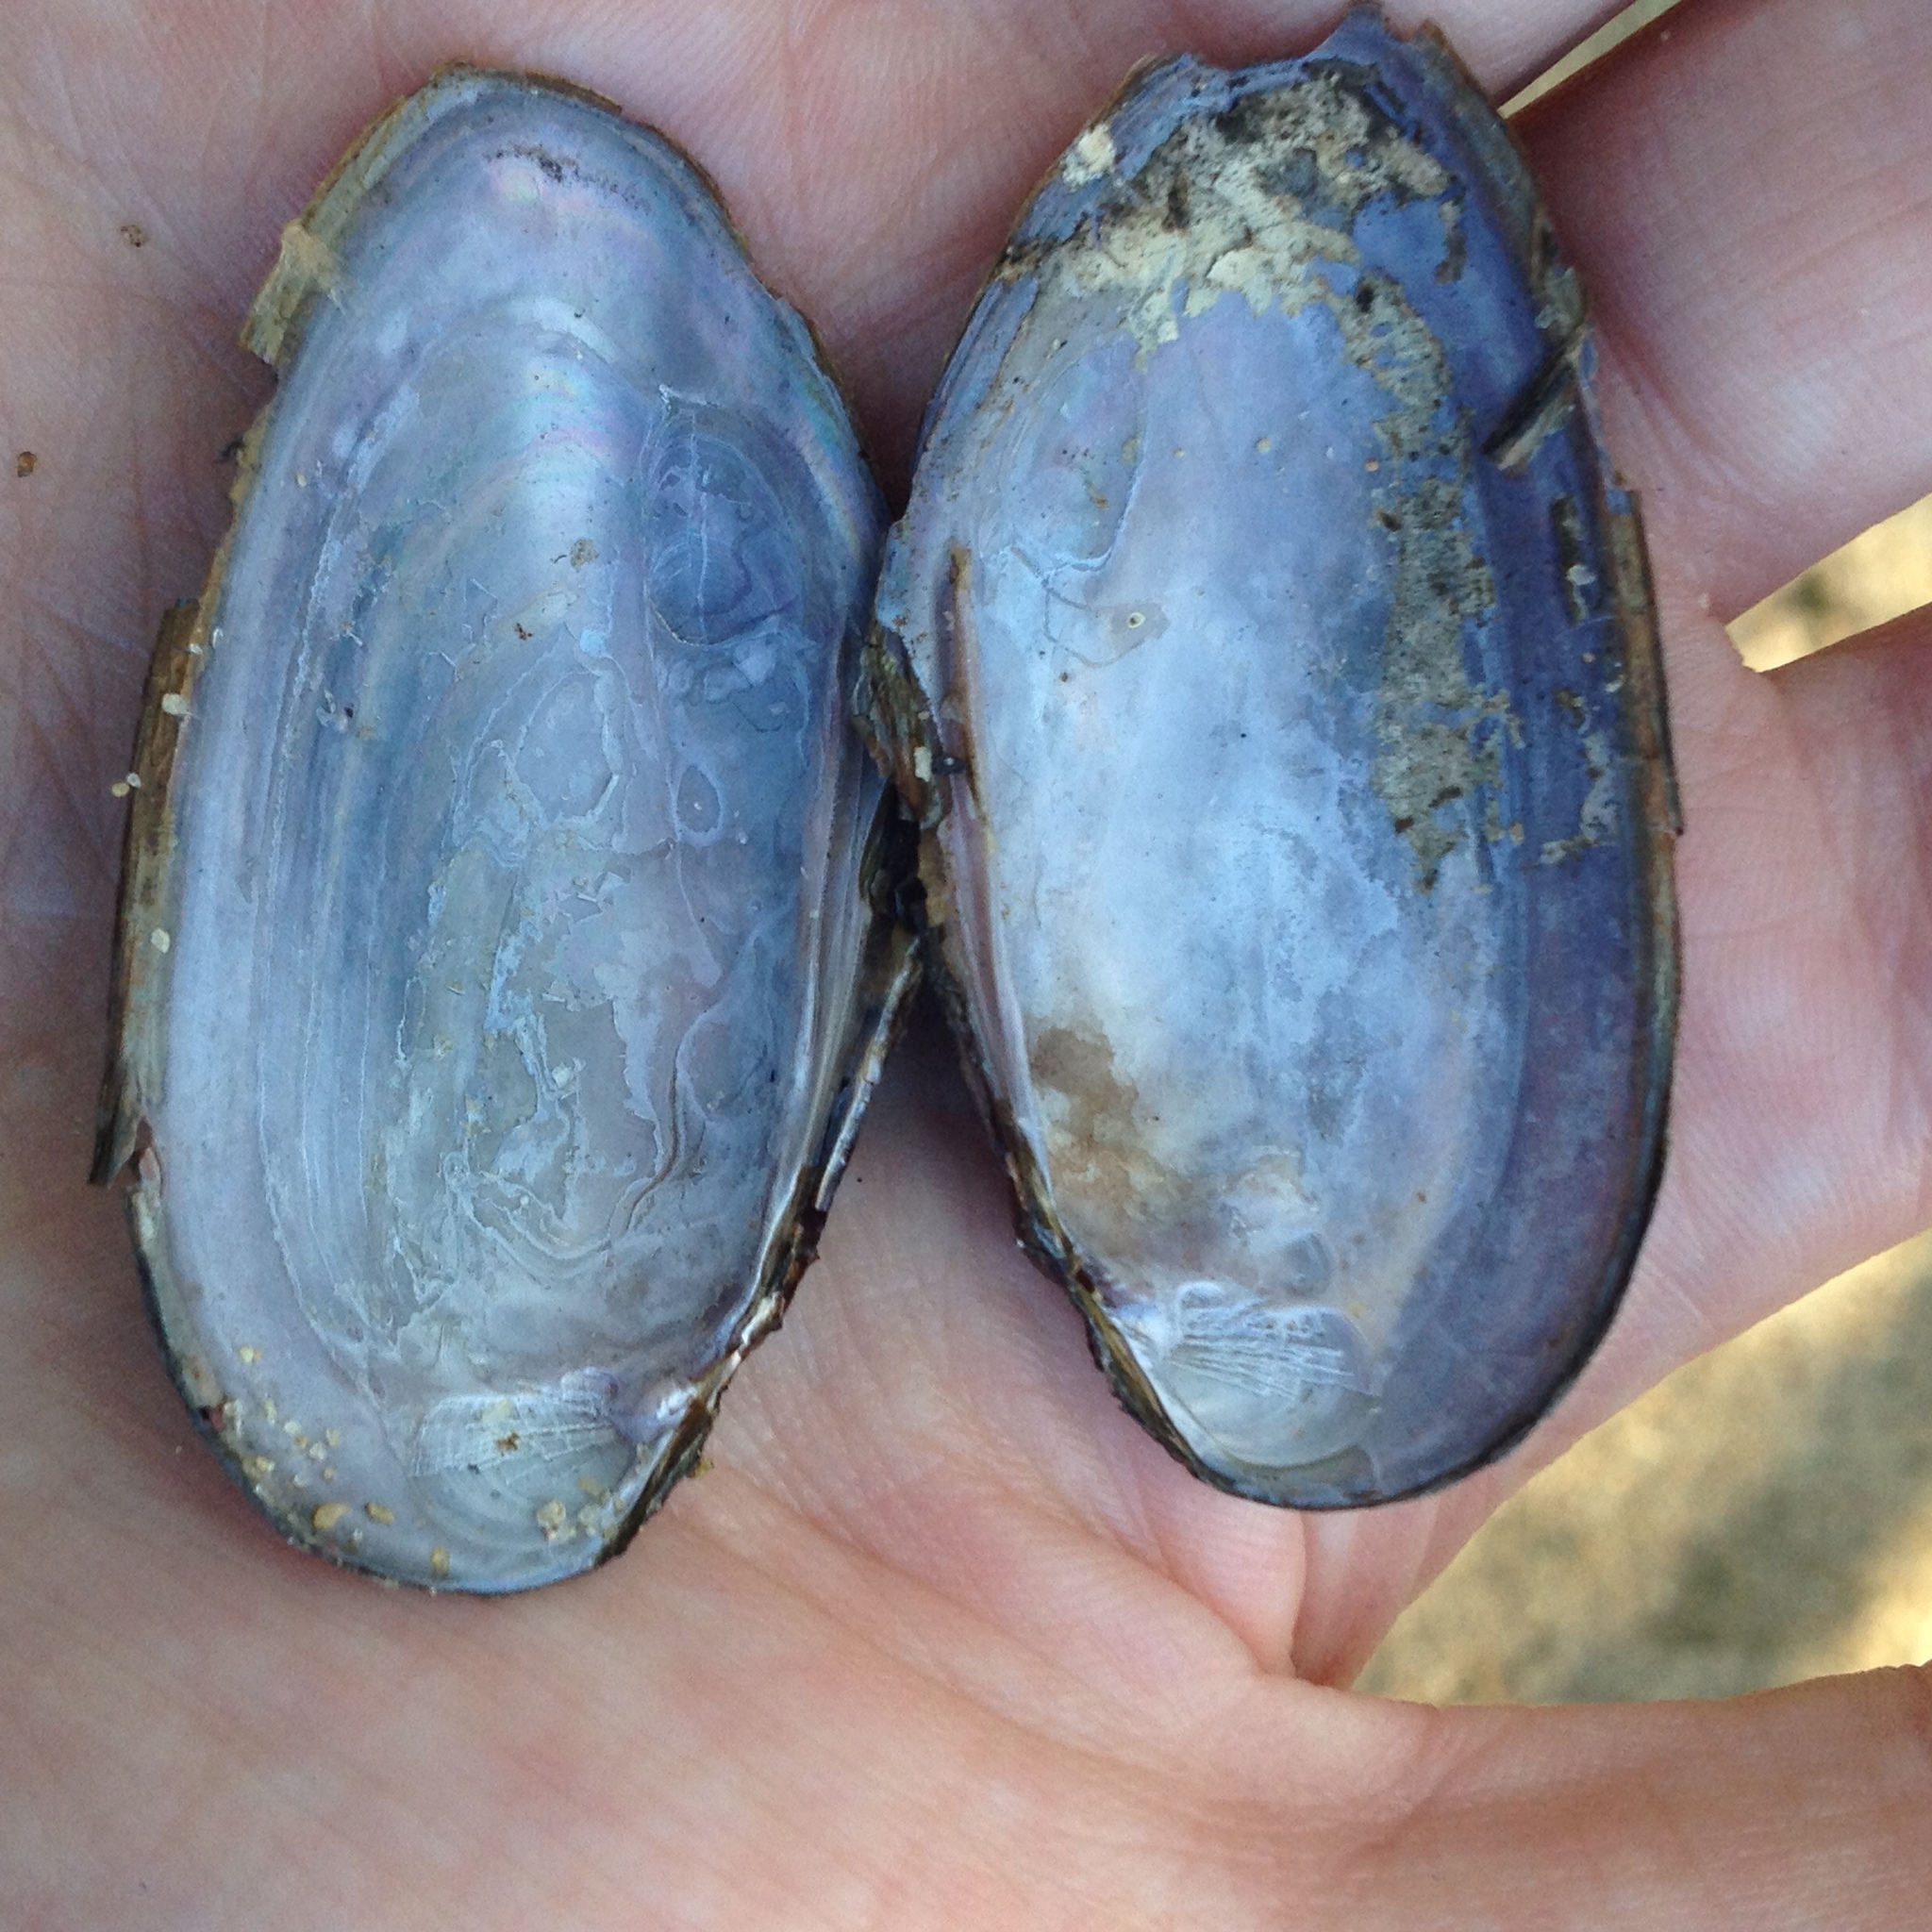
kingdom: Animalia
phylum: Mollusca
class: Bivalvia
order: Unionida
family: Unionidae
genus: Elliptio
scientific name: Elliptio complanata
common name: Eastern elliptio
